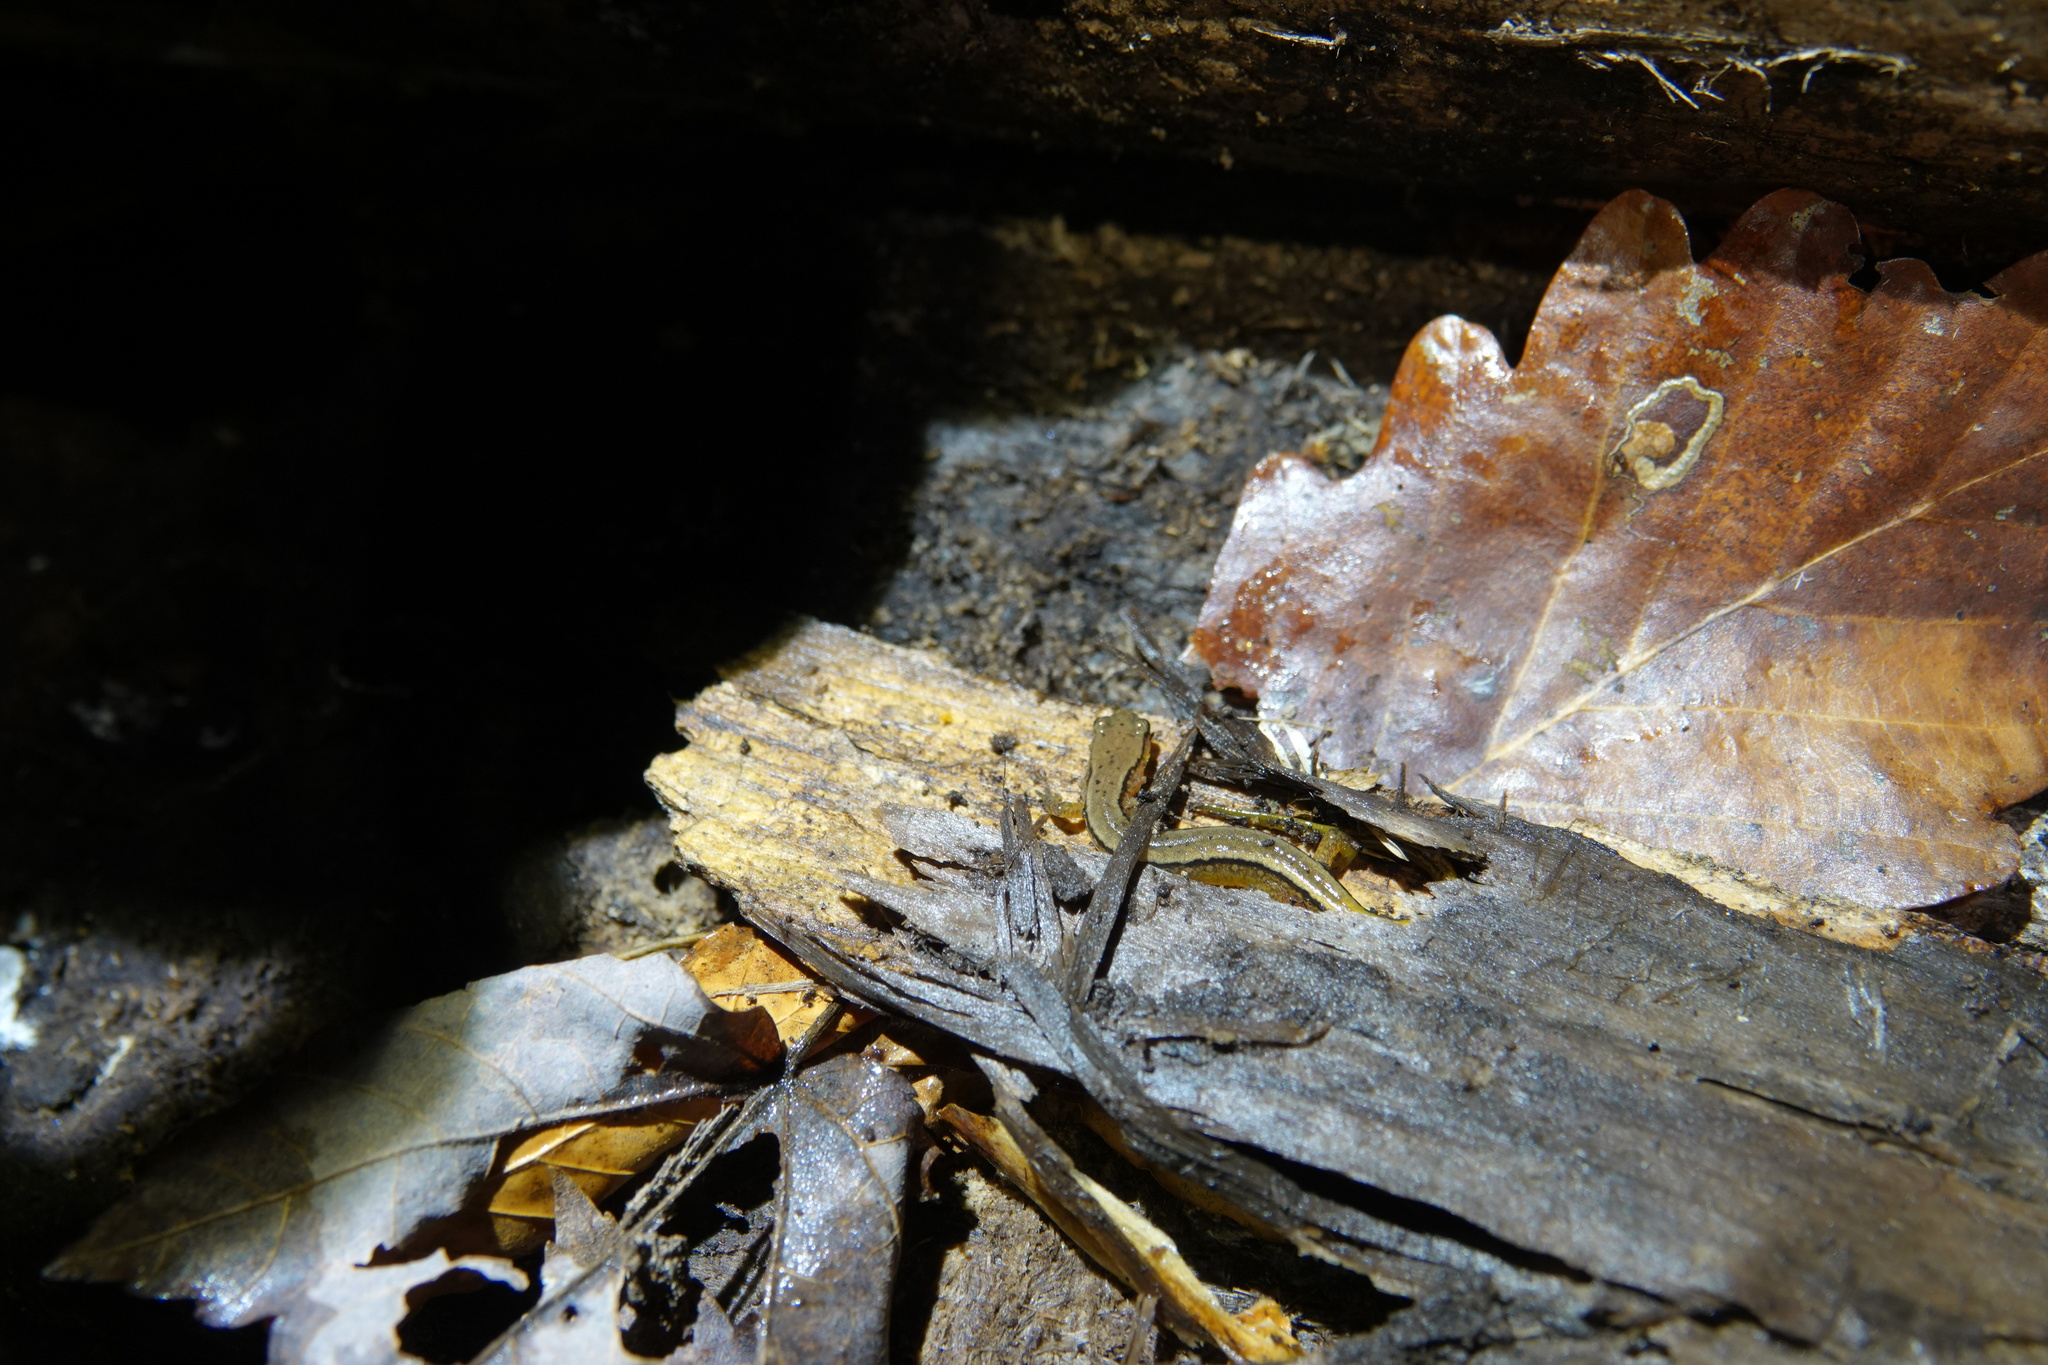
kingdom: Animalia
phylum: Chordata
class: Amphibia
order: Caudata
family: Plethodontidae
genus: Eurycea
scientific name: Eurycea bislineata
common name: Northern two-lined salamander
